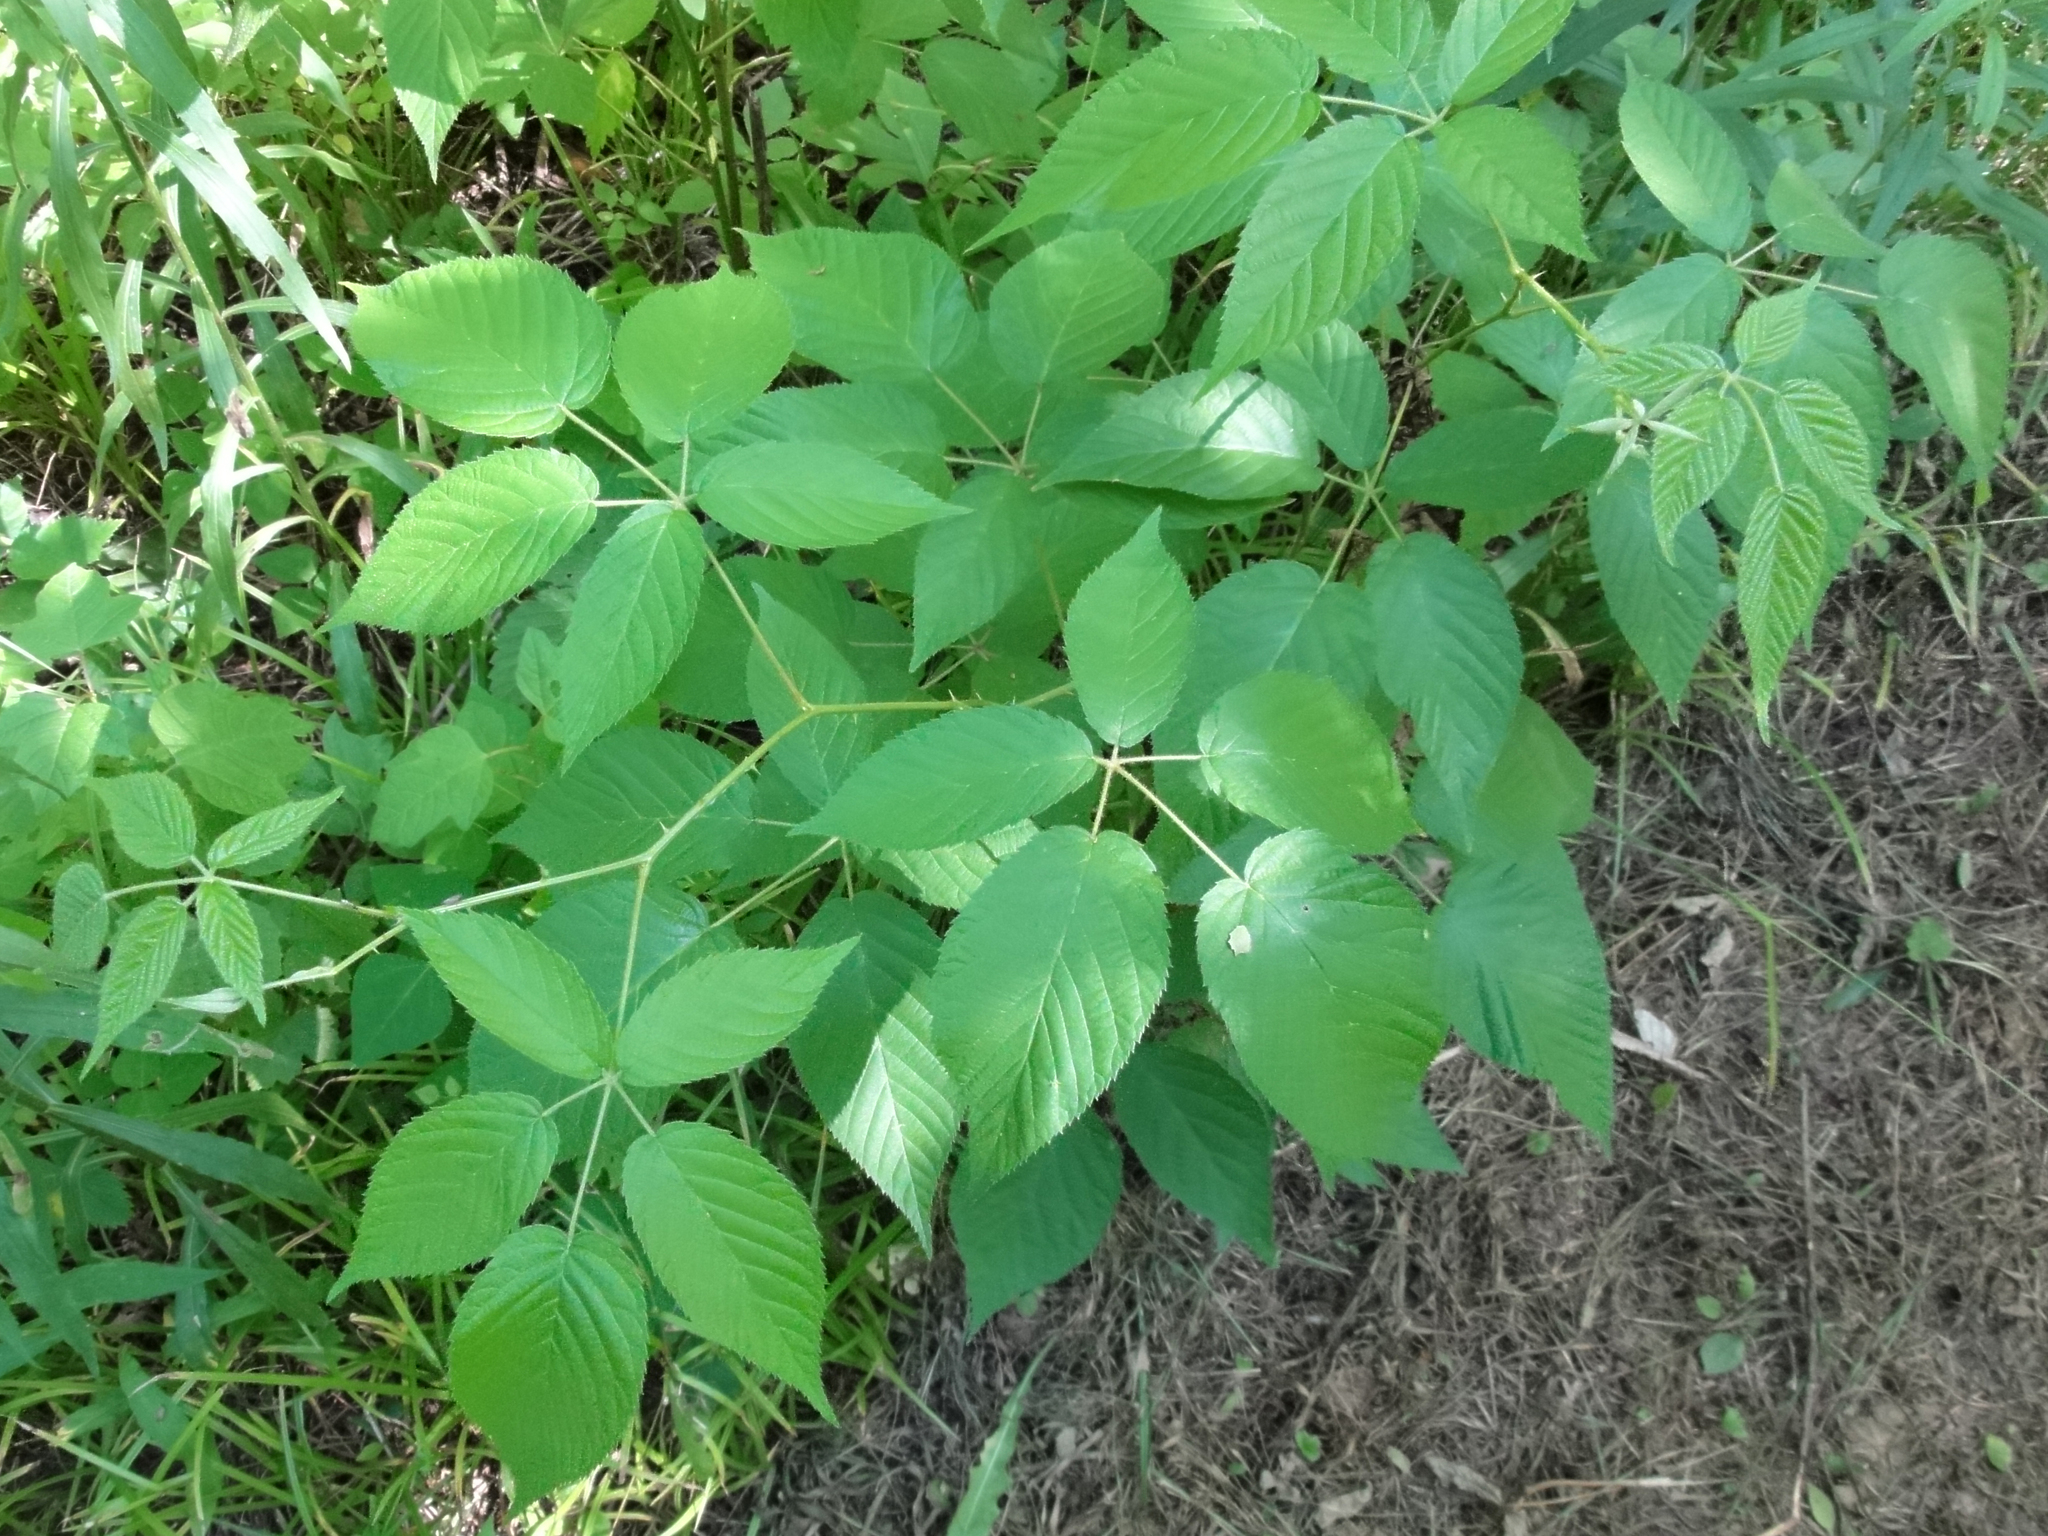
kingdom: Plantae
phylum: Tracheophyta
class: Magnoliopsida
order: Rosales
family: Rosaceae
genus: Rubus
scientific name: Rubus allegheniensis
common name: Allegheny blackberry
